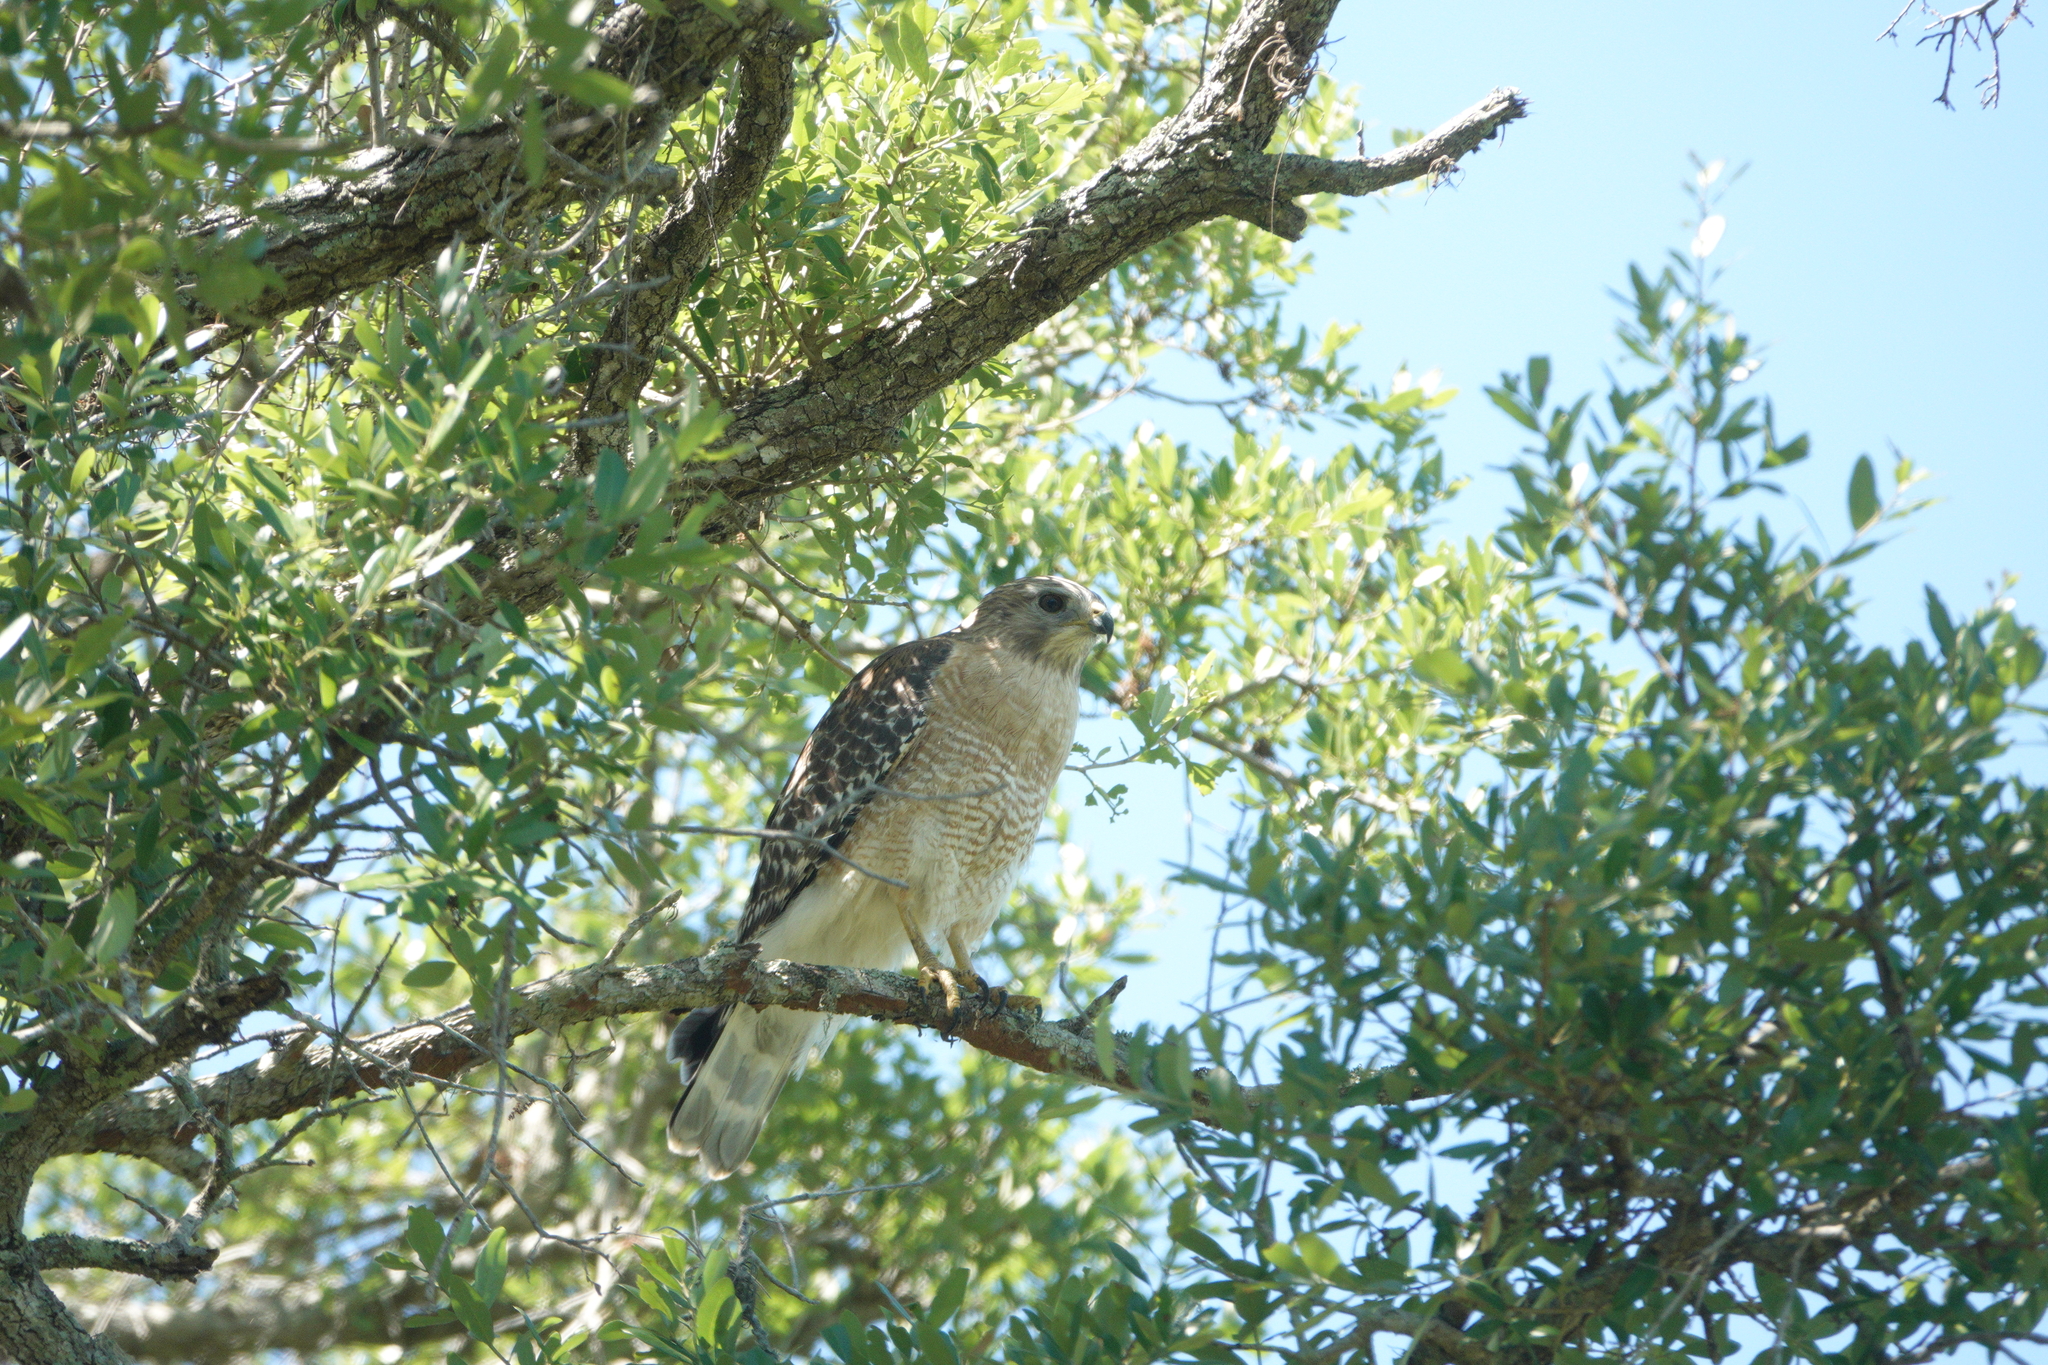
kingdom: Animalia
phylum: Chordata
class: Aves
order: Accipitriformes
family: Accipitridae
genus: Buteo
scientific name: Buteo lineatus
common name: Red-shouldered hawk
